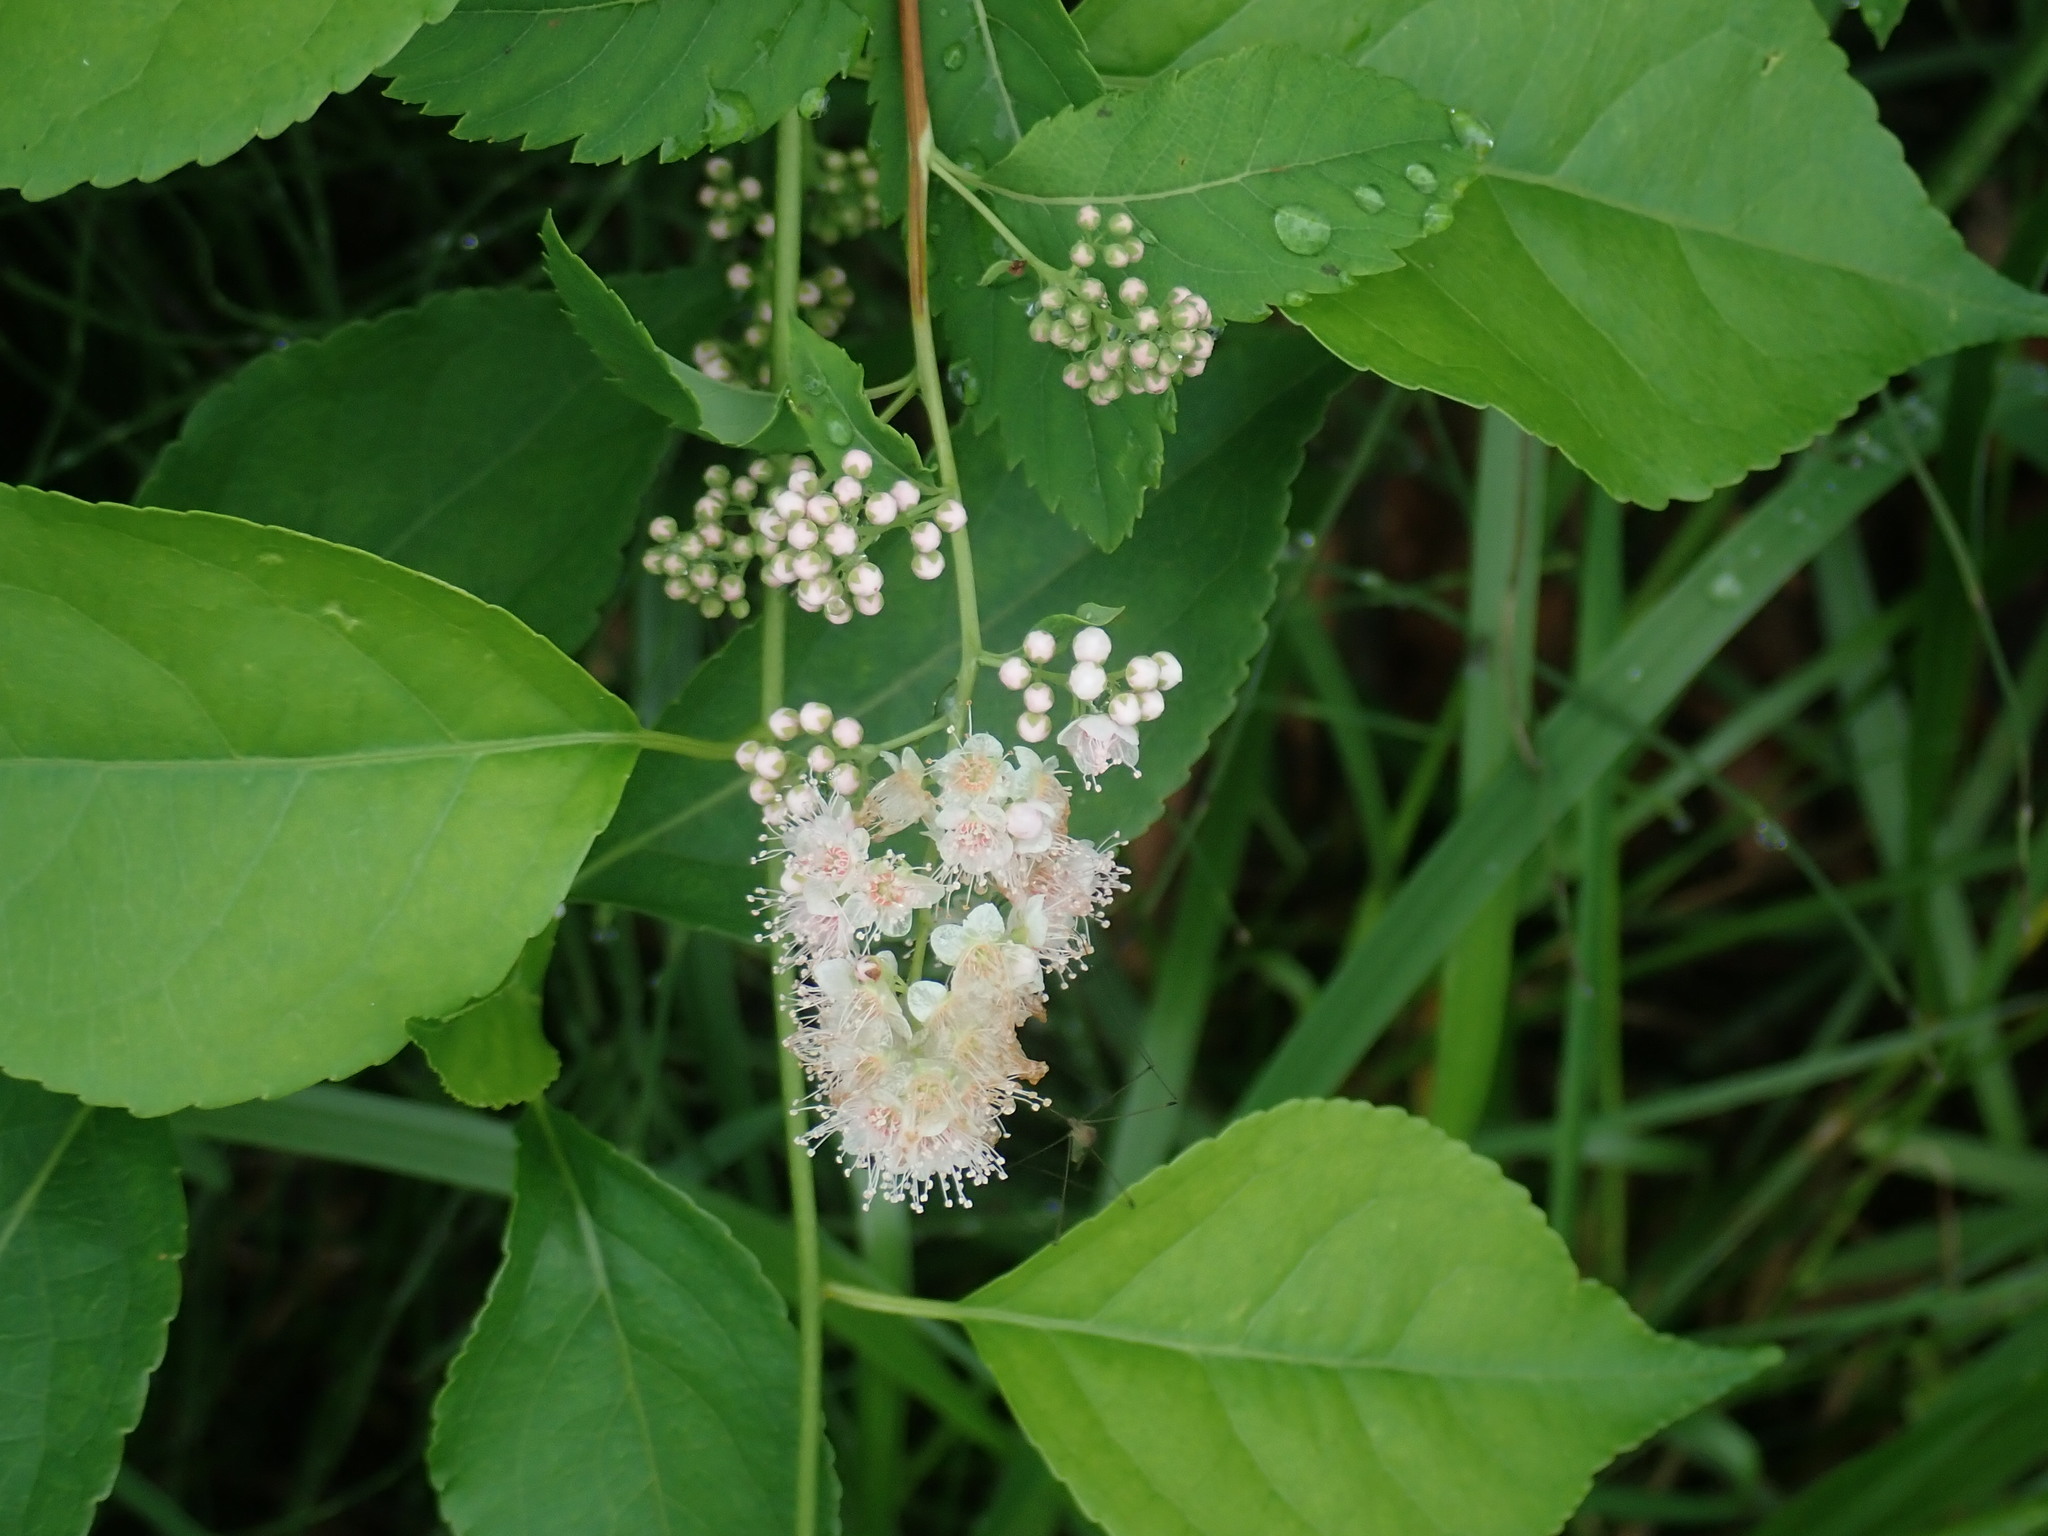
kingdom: Plantae
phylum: Tracheophyta
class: Magnoliopsida
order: Rosales
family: Rosaceae
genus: Spiraea
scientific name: Spiraea alba
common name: Pale bridewort
